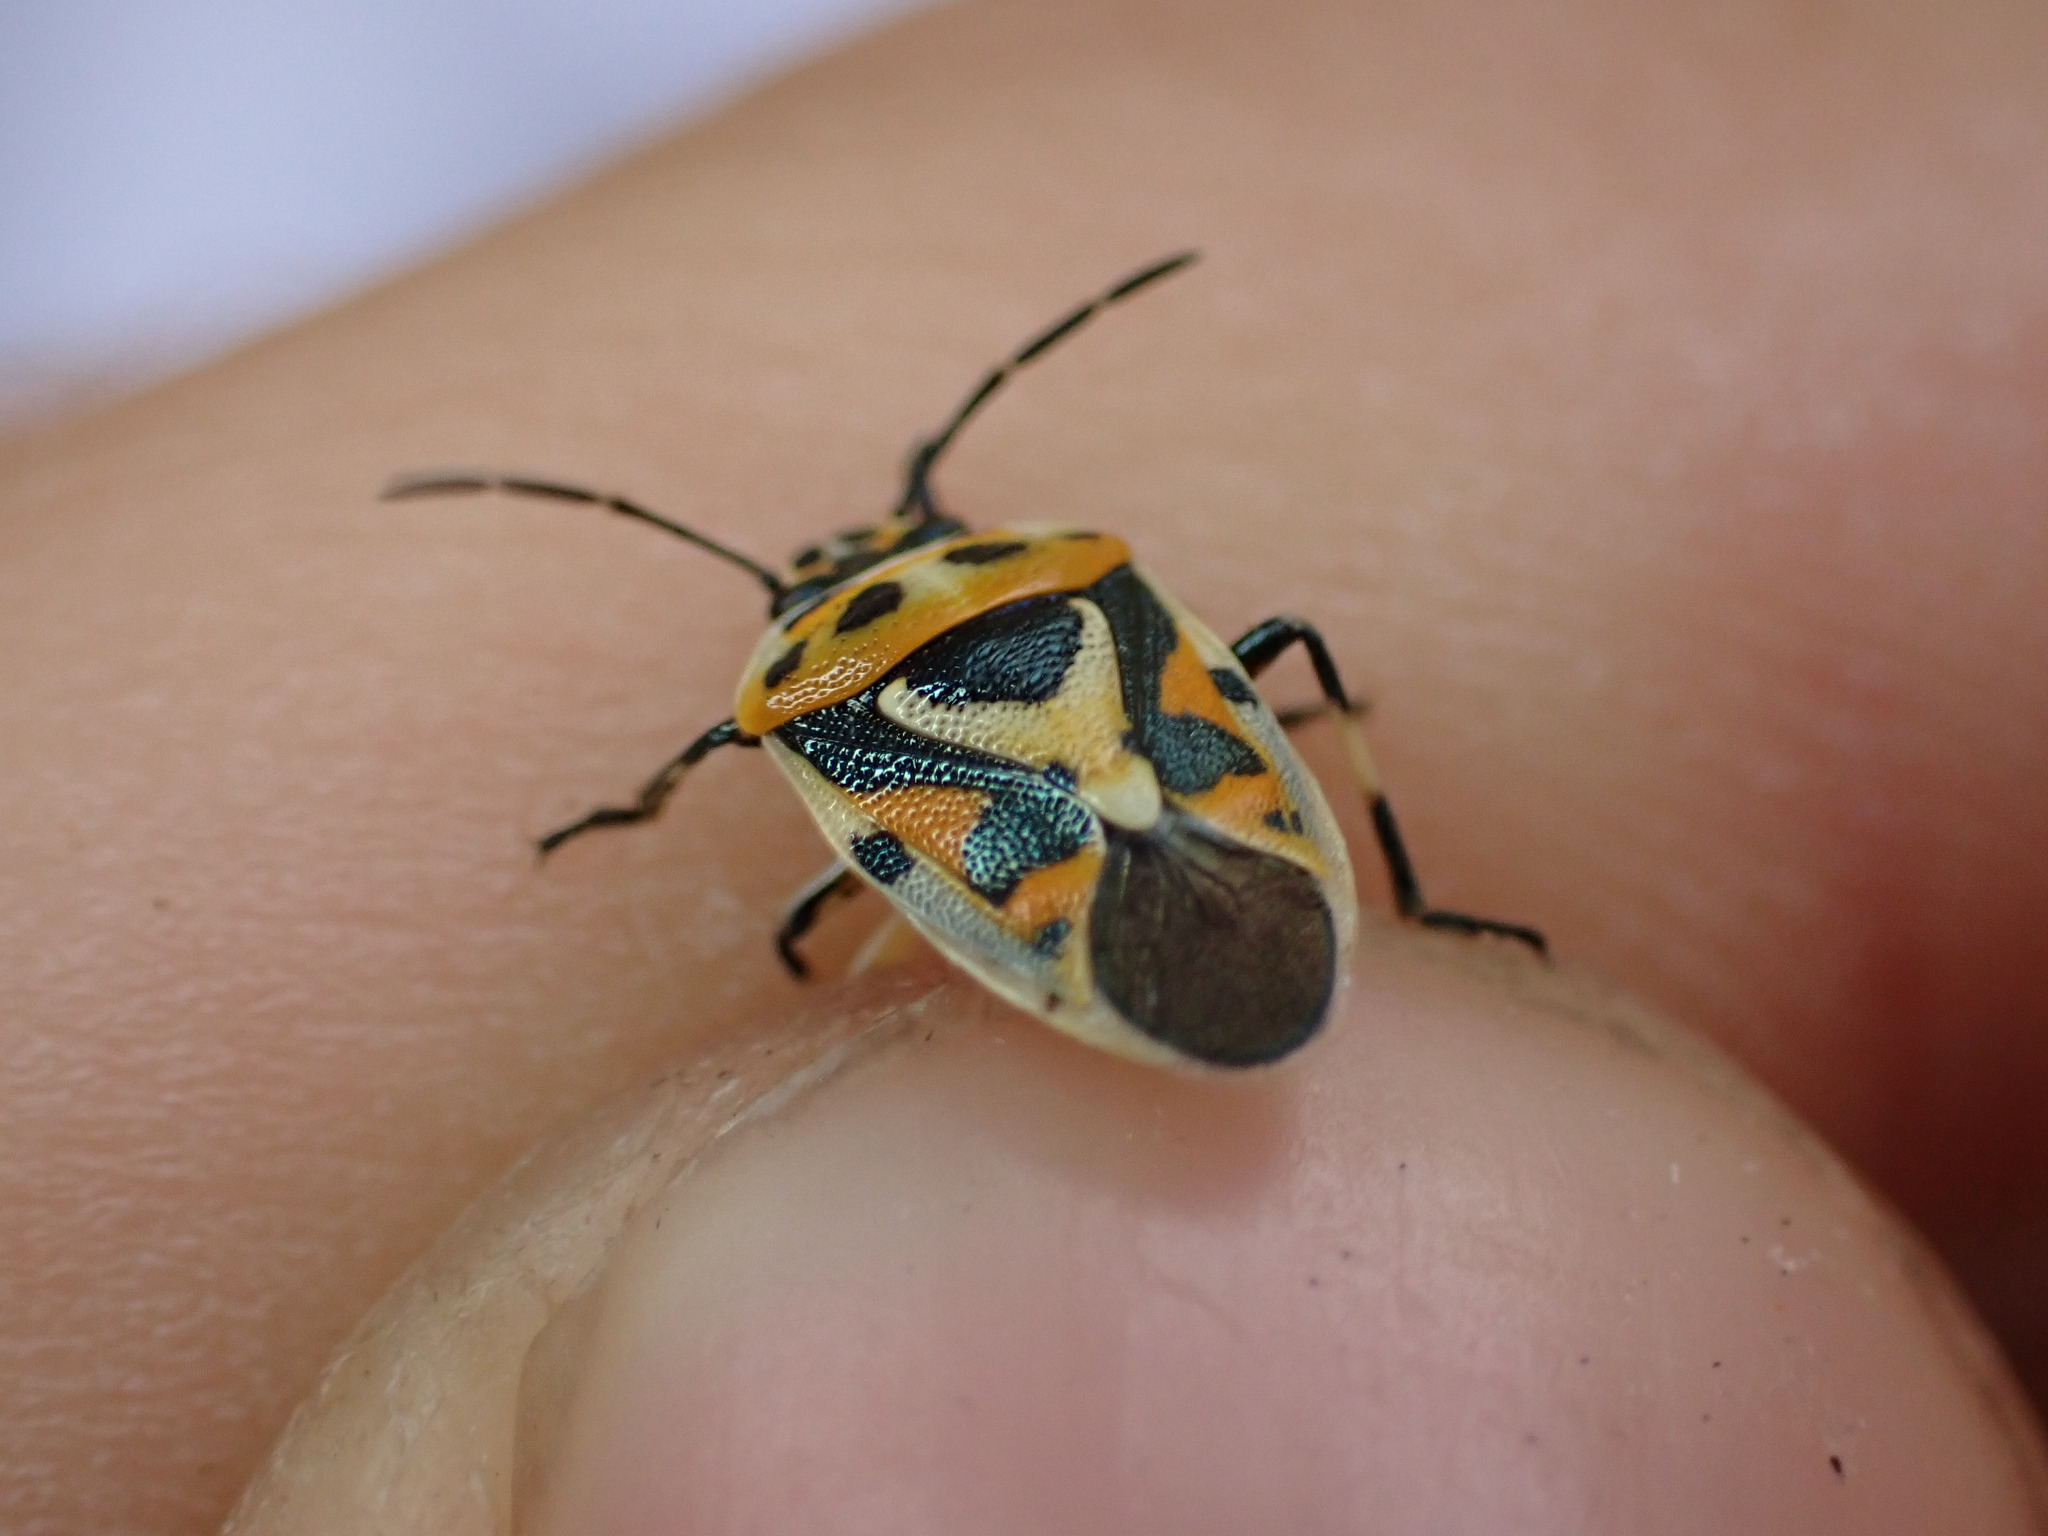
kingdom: Animalia
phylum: Arthropoda
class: Insecta
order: Hemiptera
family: Pentatomidae
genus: Eurydema
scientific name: Eurydema ornata
